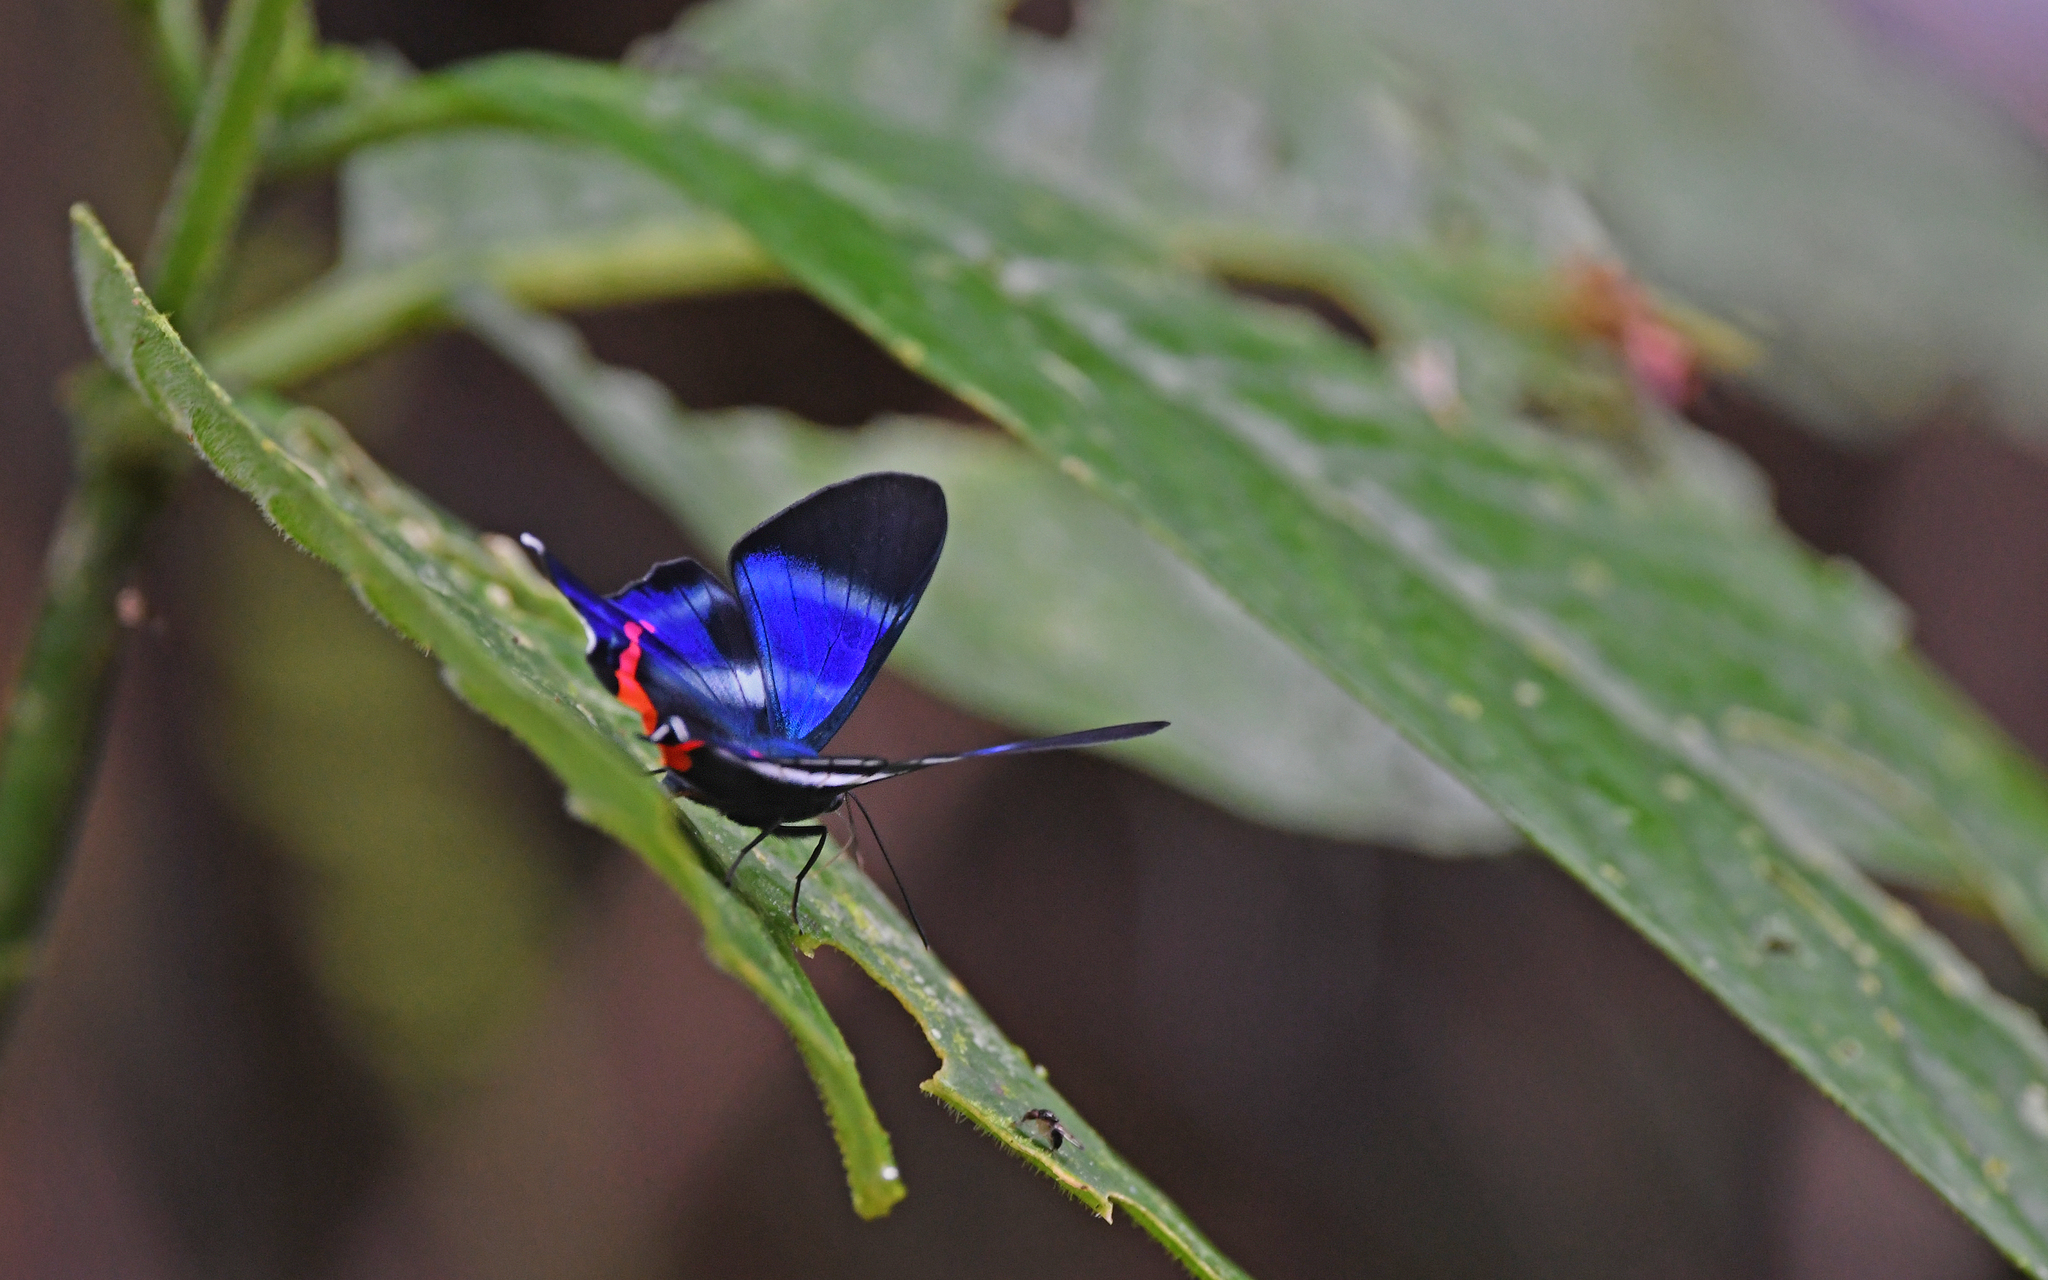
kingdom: Animalia
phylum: Arthropoda
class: Insecta
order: Lepidoptera
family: Riodinidae
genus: Rhetus
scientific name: Rhetus dysonii
